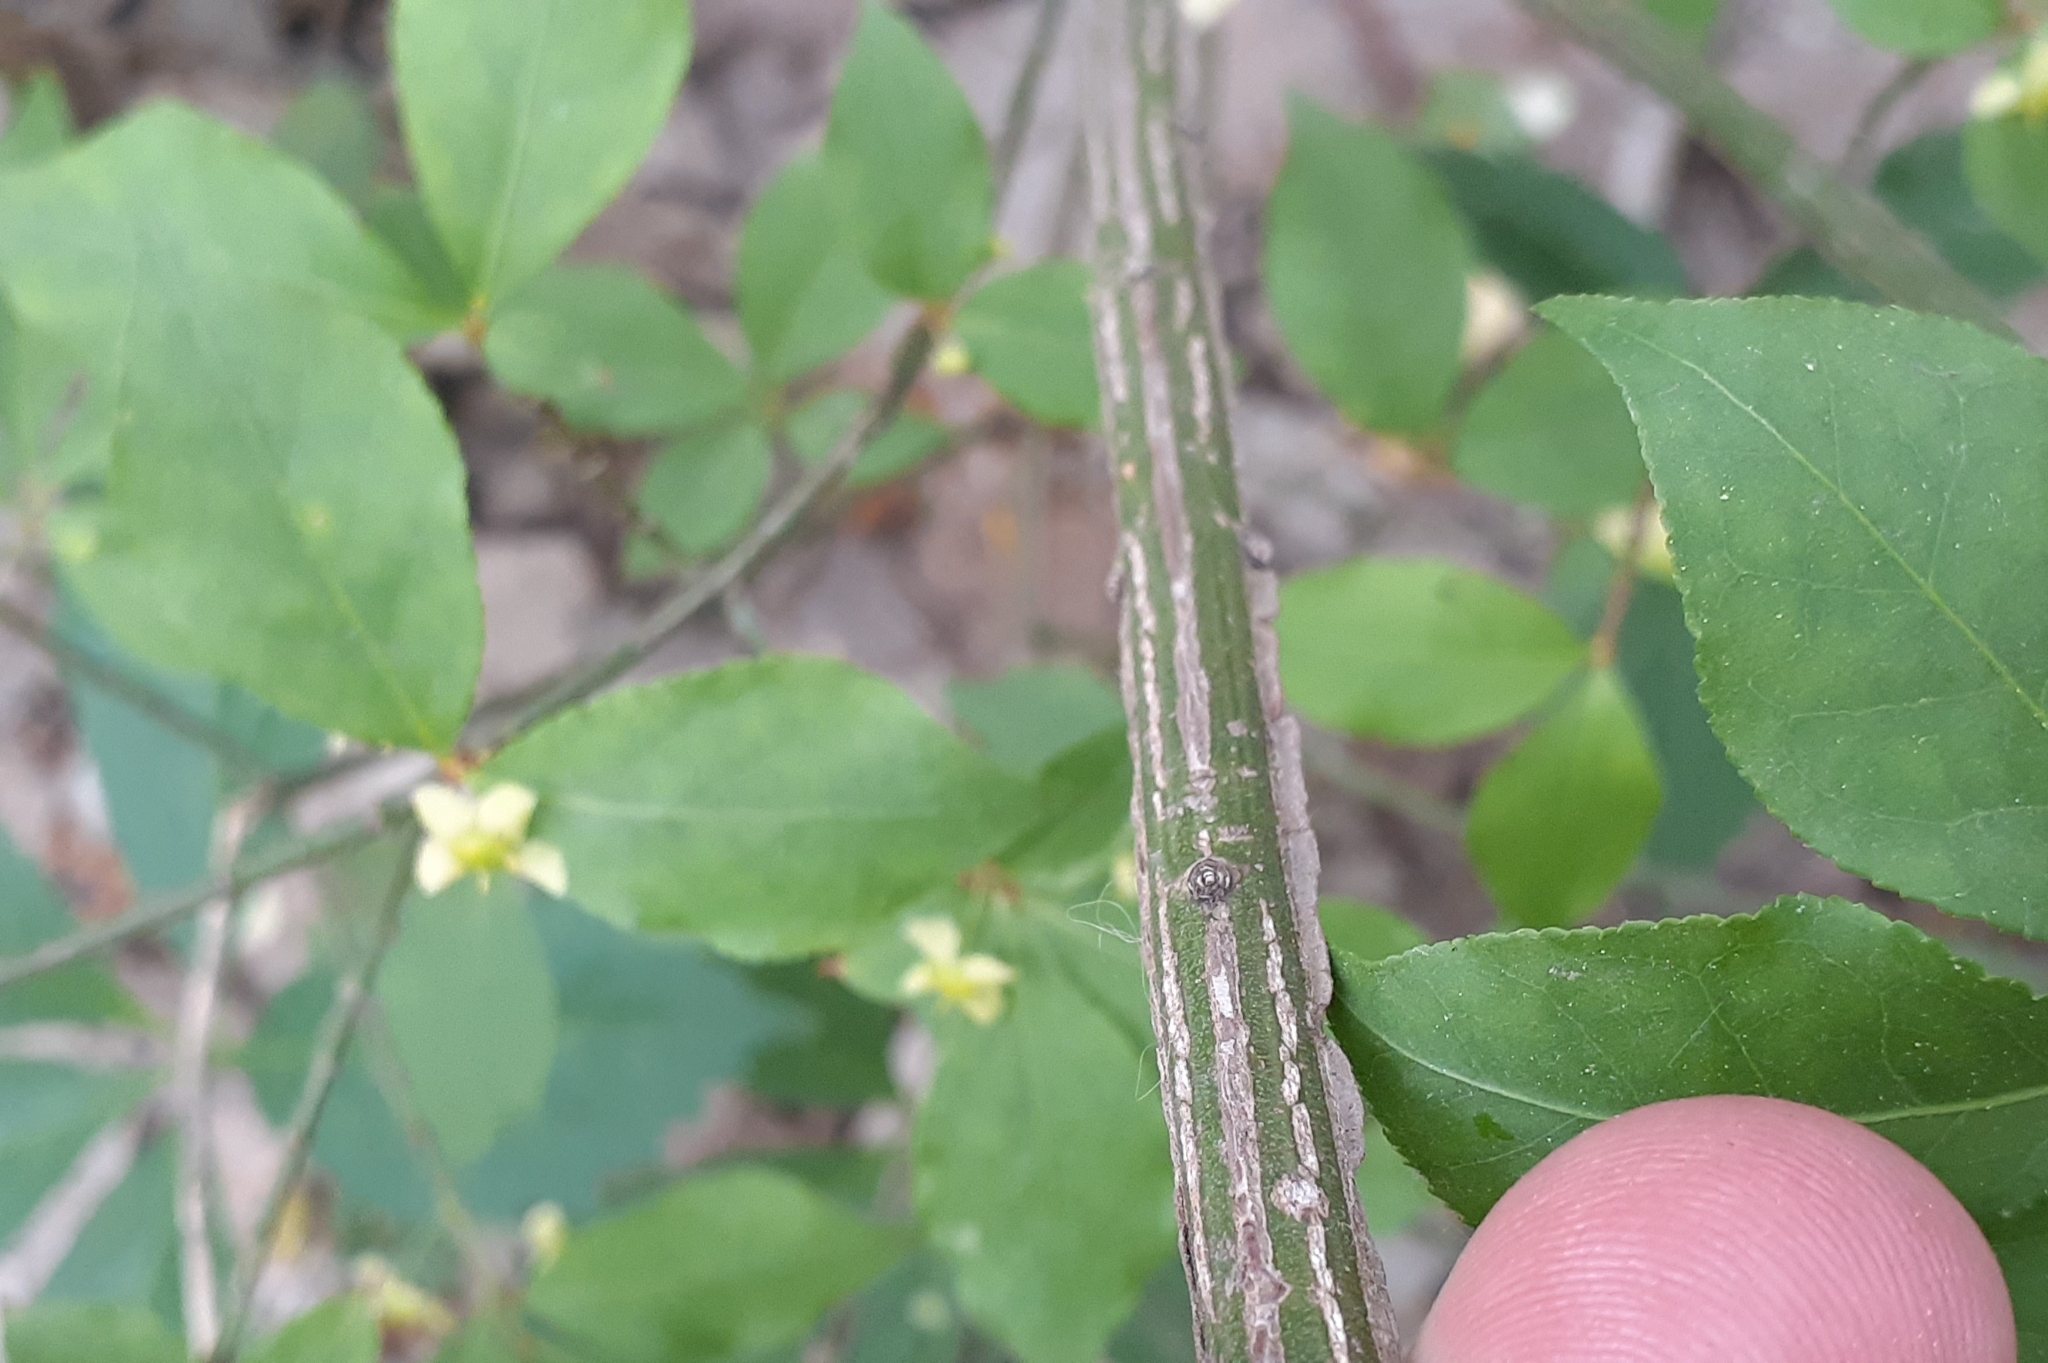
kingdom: Plantae
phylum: Tracheophyta
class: Magnoliopsida
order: Celastrales
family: Celastraceae
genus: Euonymus
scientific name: Euonymus alatus
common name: Winged euonymus
